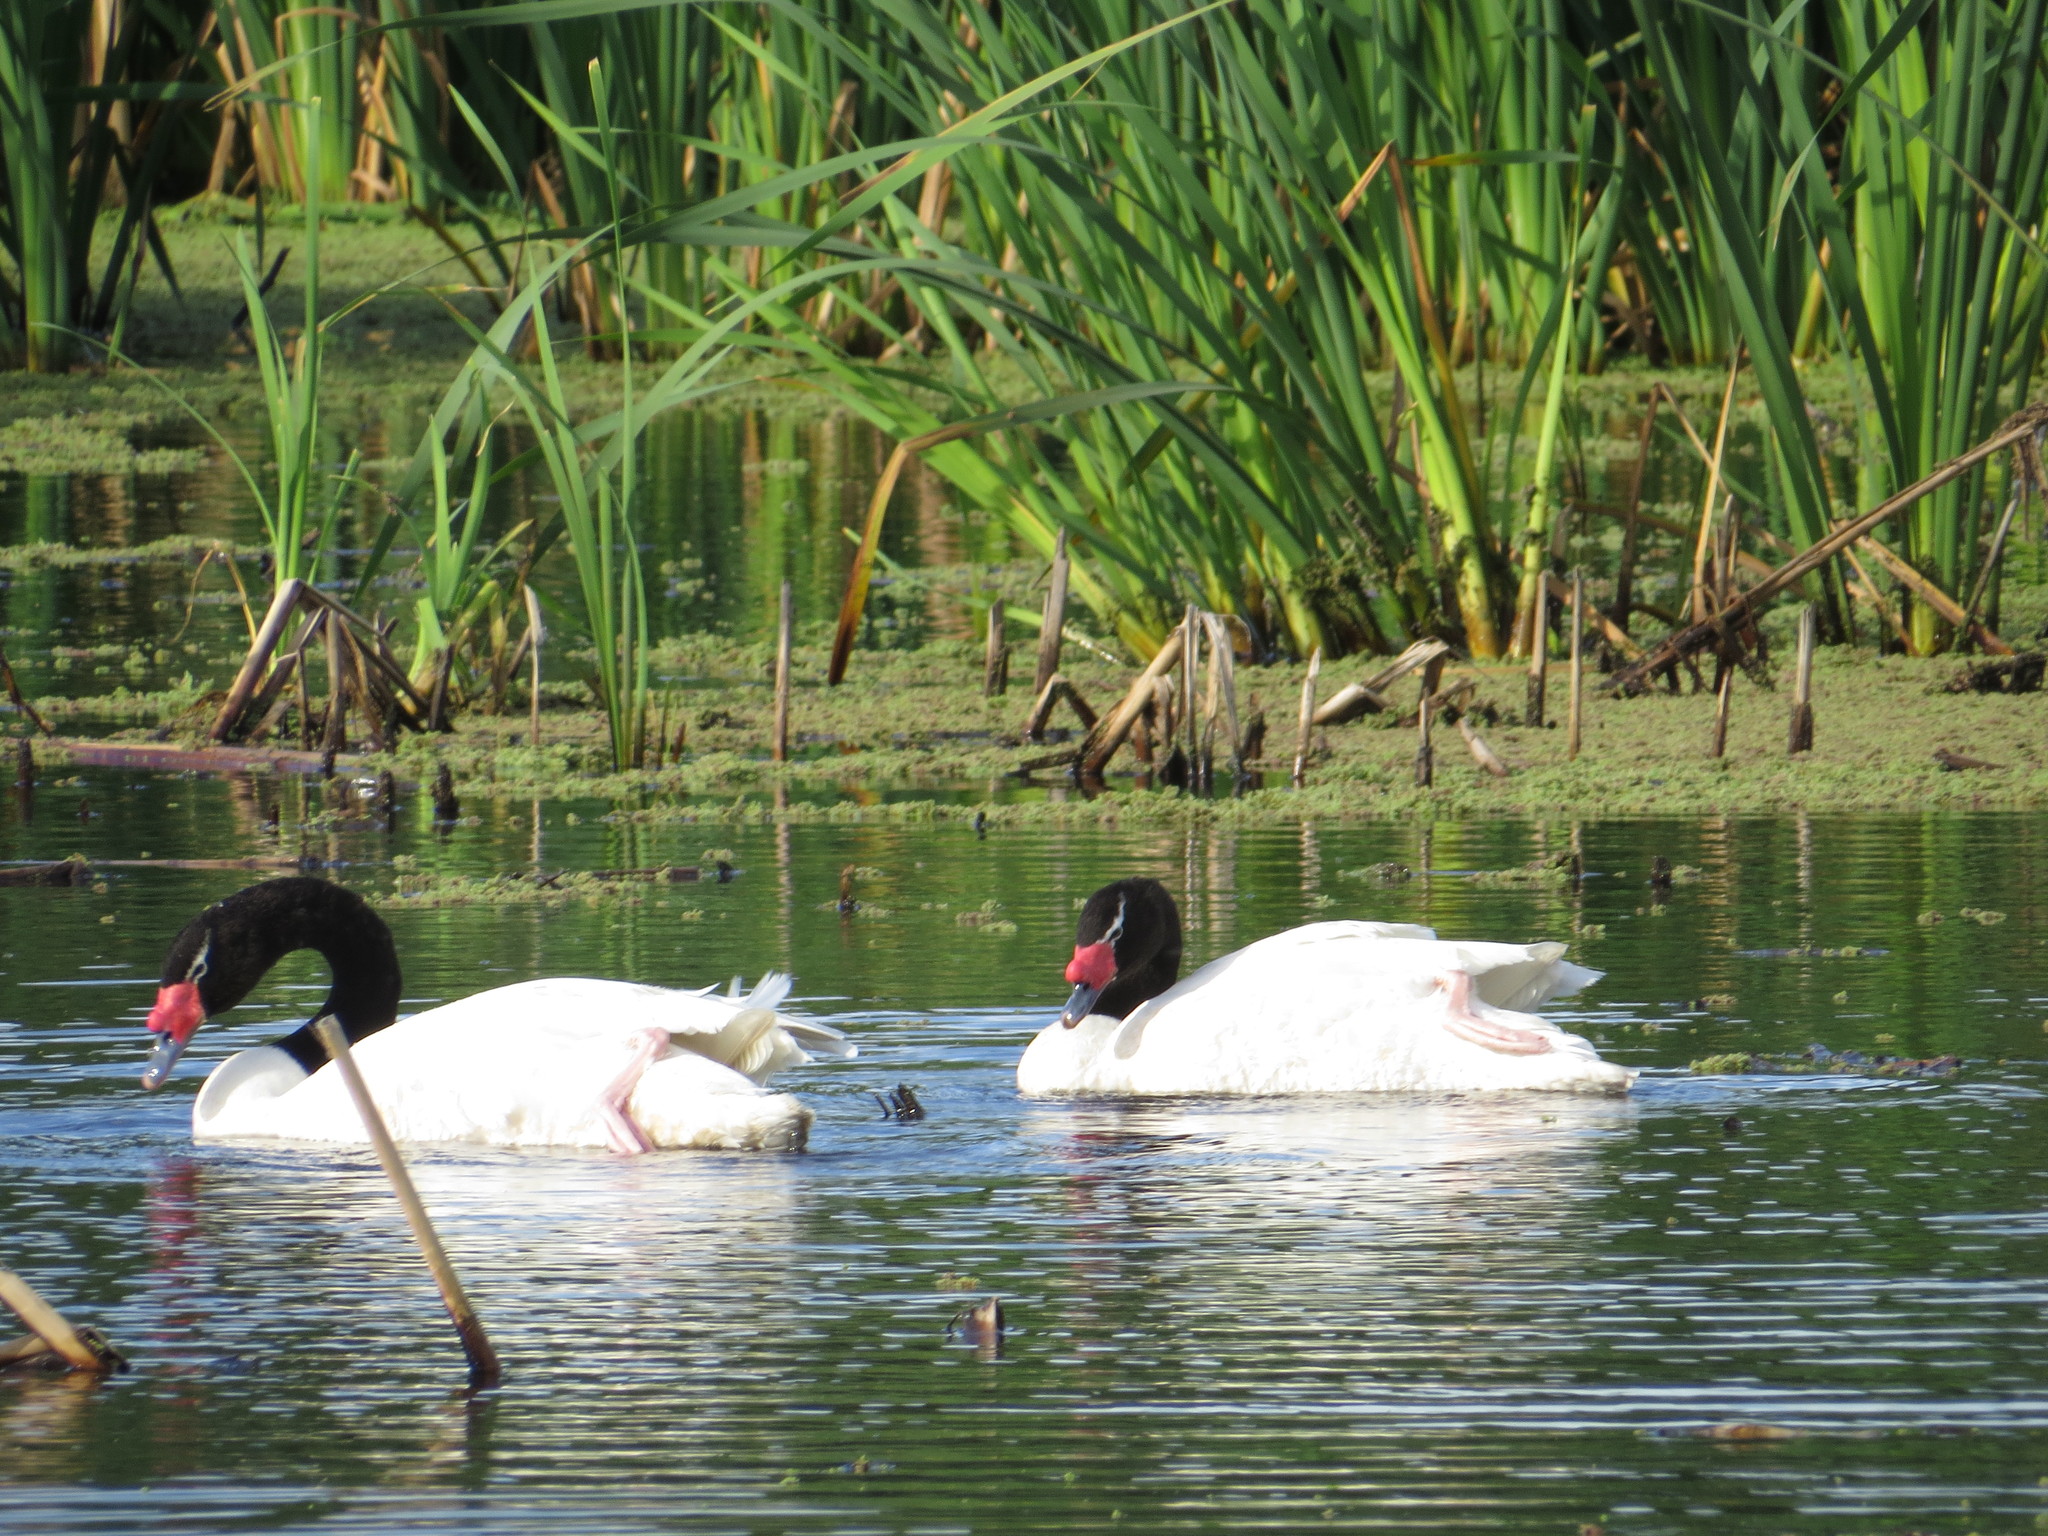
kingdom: Animalia
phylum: Chordata
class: Aves
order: Anseriformes
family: Anatidae
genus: Cygnus
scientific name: Cygnus melancoryphus
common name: Black-necked swan
